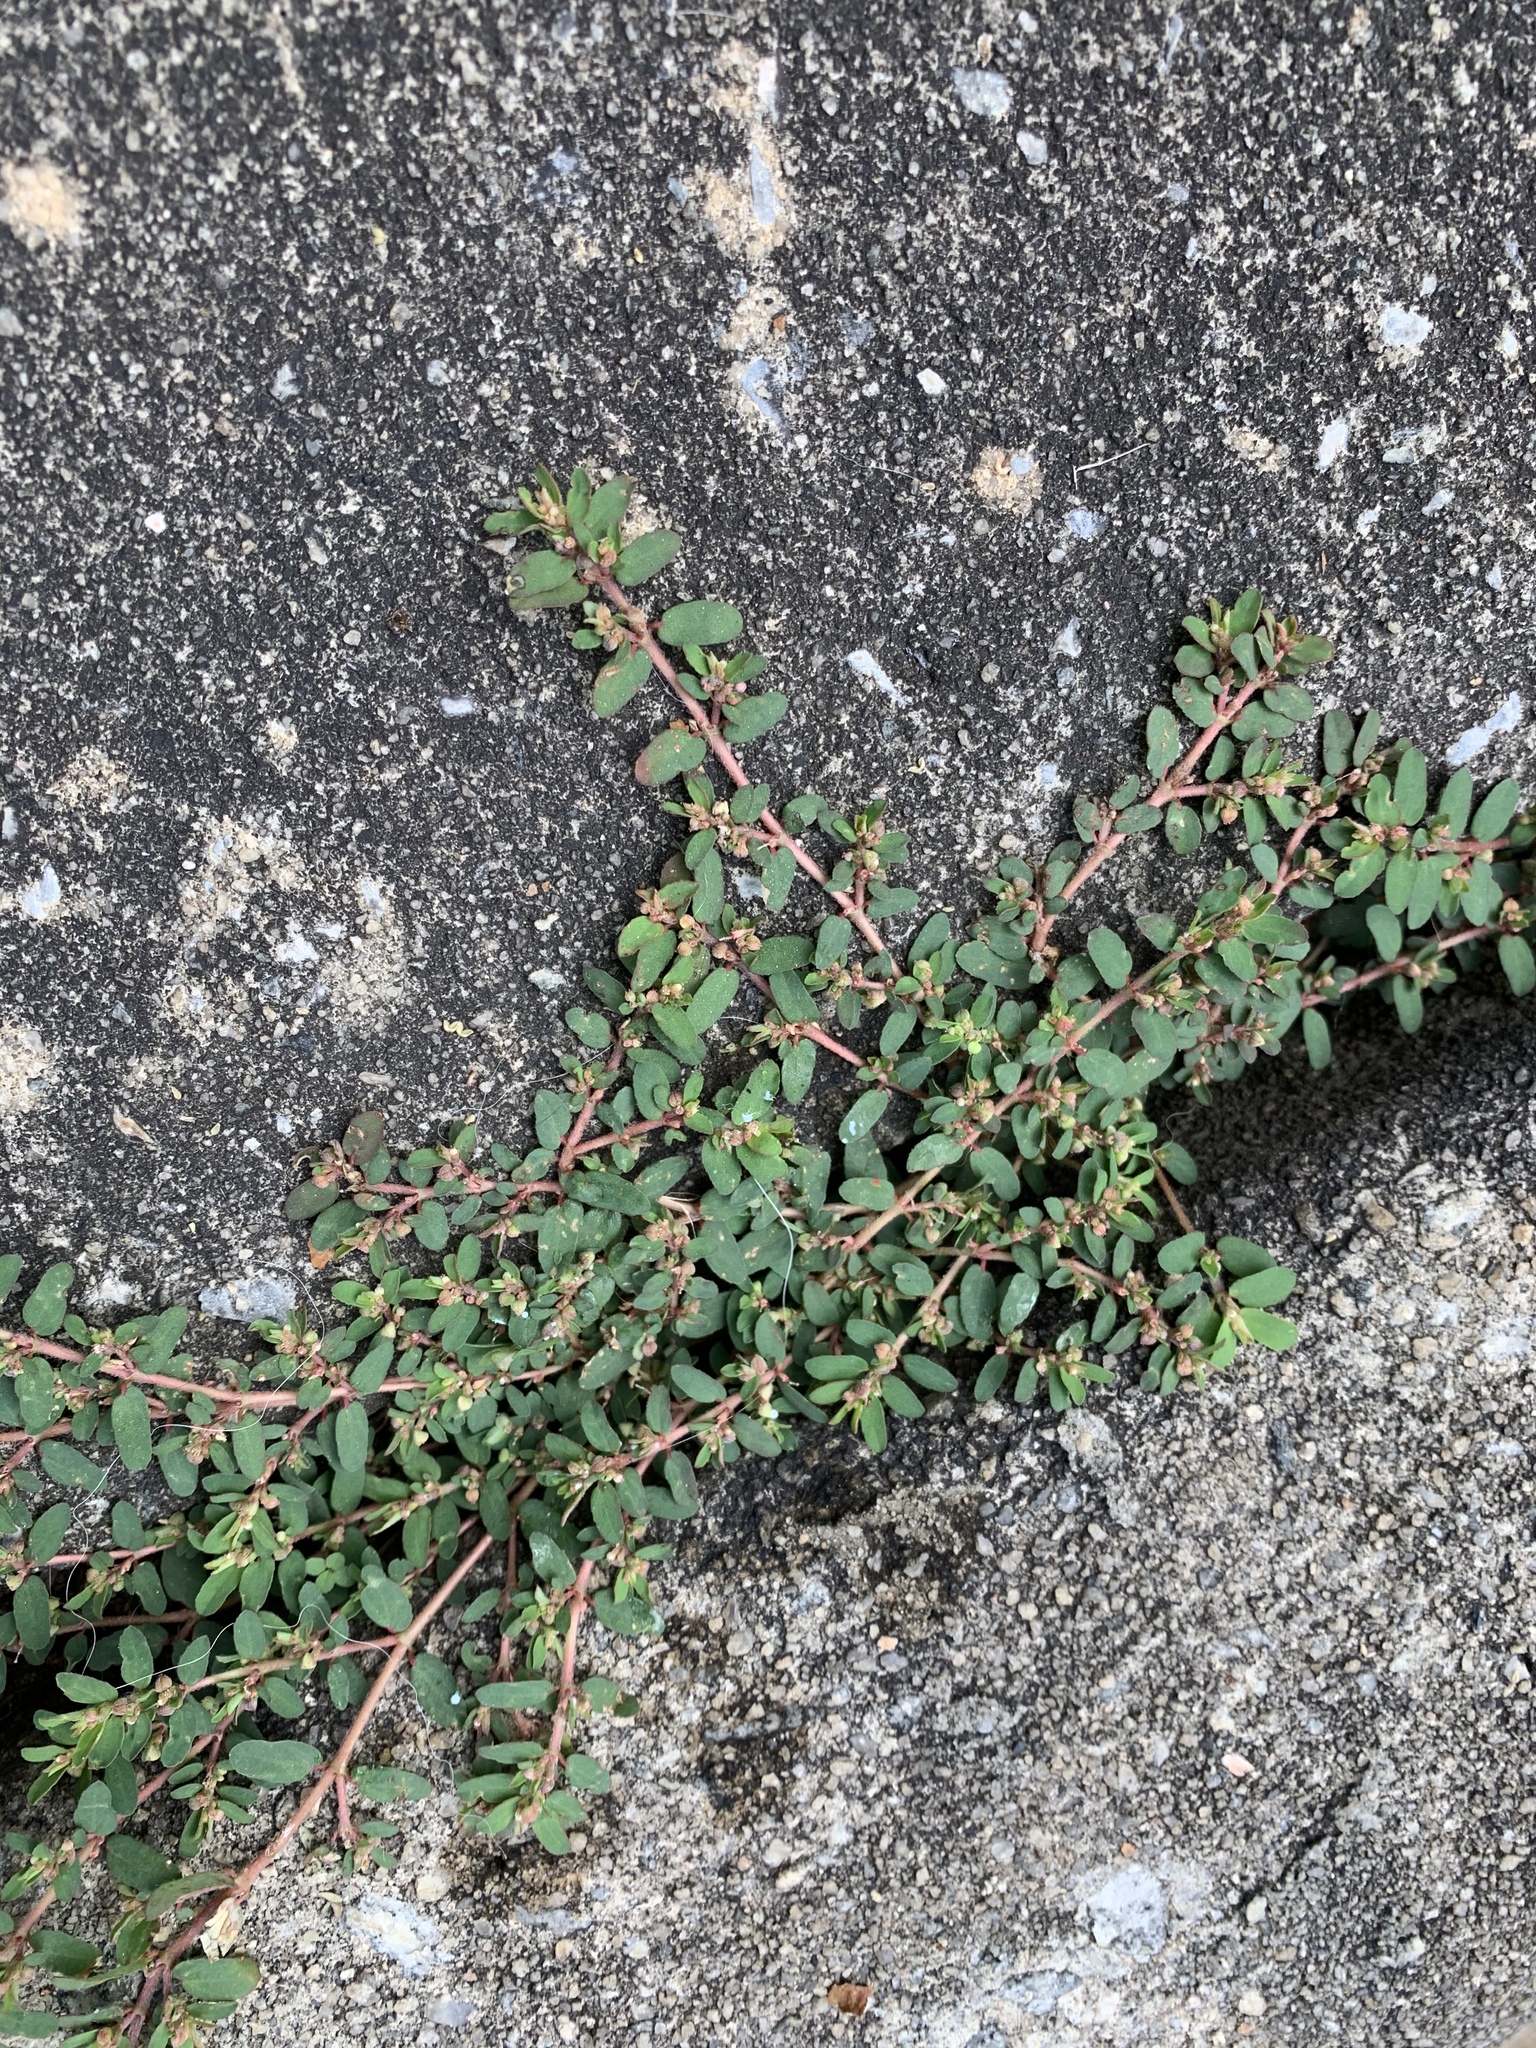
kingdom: Plantae
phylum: Tracheophyta
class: Magnoliopsida
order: Malpighiales
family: Euphorbiaceae
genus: Euphorbia
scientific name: Euphorbia maculata
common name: Spotted spurge
